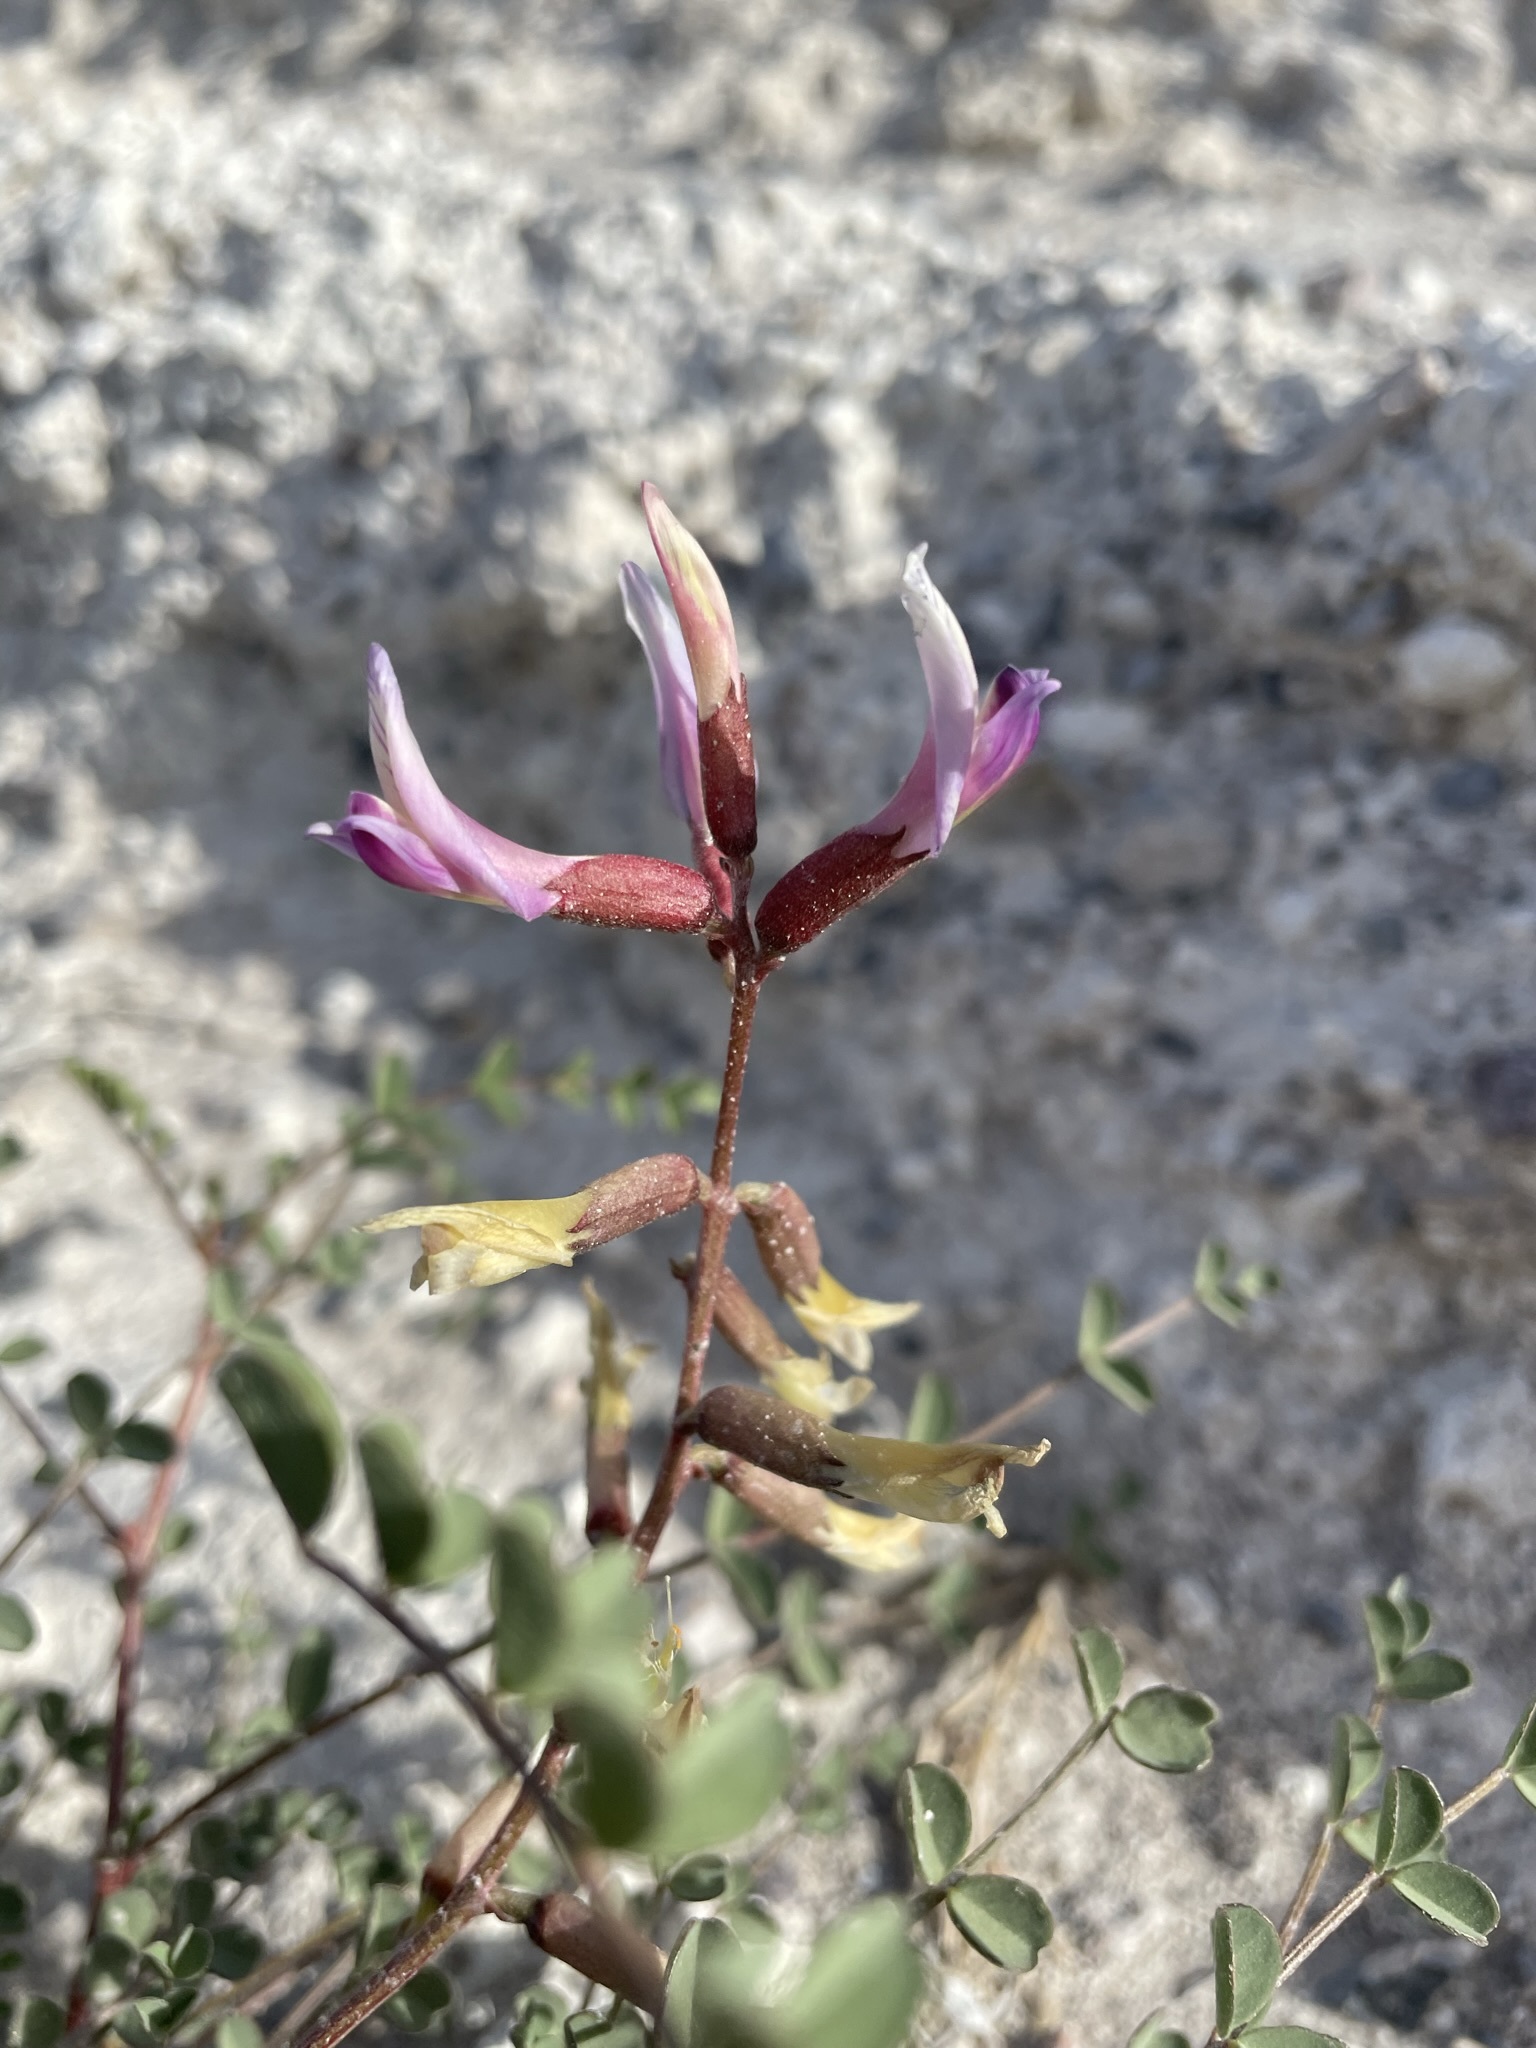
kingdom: Plantae
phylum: Tracheophyta
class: Magnoliopsida
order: Fabales
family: Fabaceae
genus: Astragalus
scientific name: Astragalus preussii
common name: Preuss's milk-vetch
